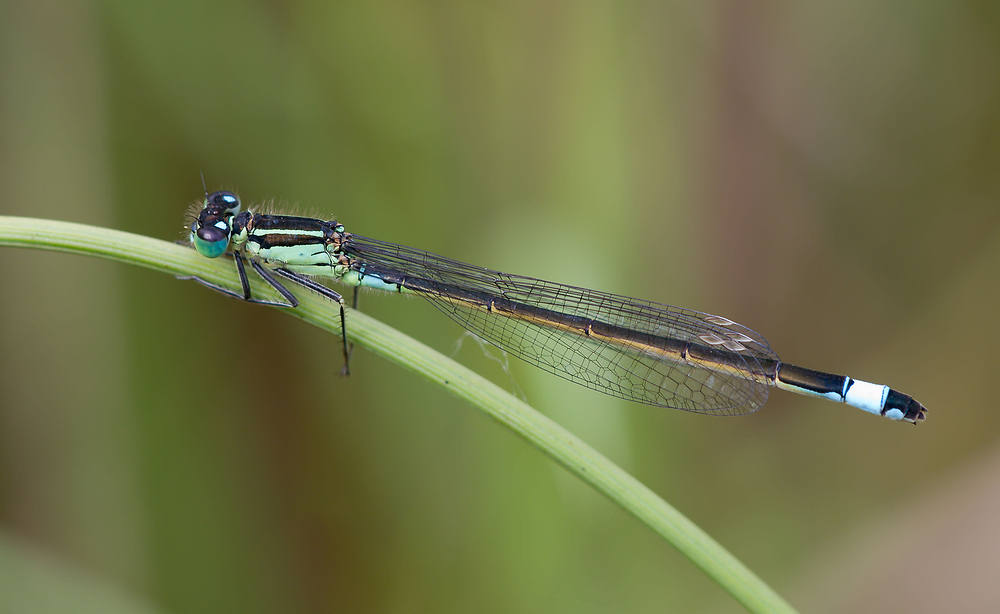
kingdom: Animalia
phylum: Arthropoda
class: Insecta
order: Odonata
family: Coenagrionidae
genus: Ischnura
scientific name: Ischnura elegans
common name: Blue-tailed damselfly
